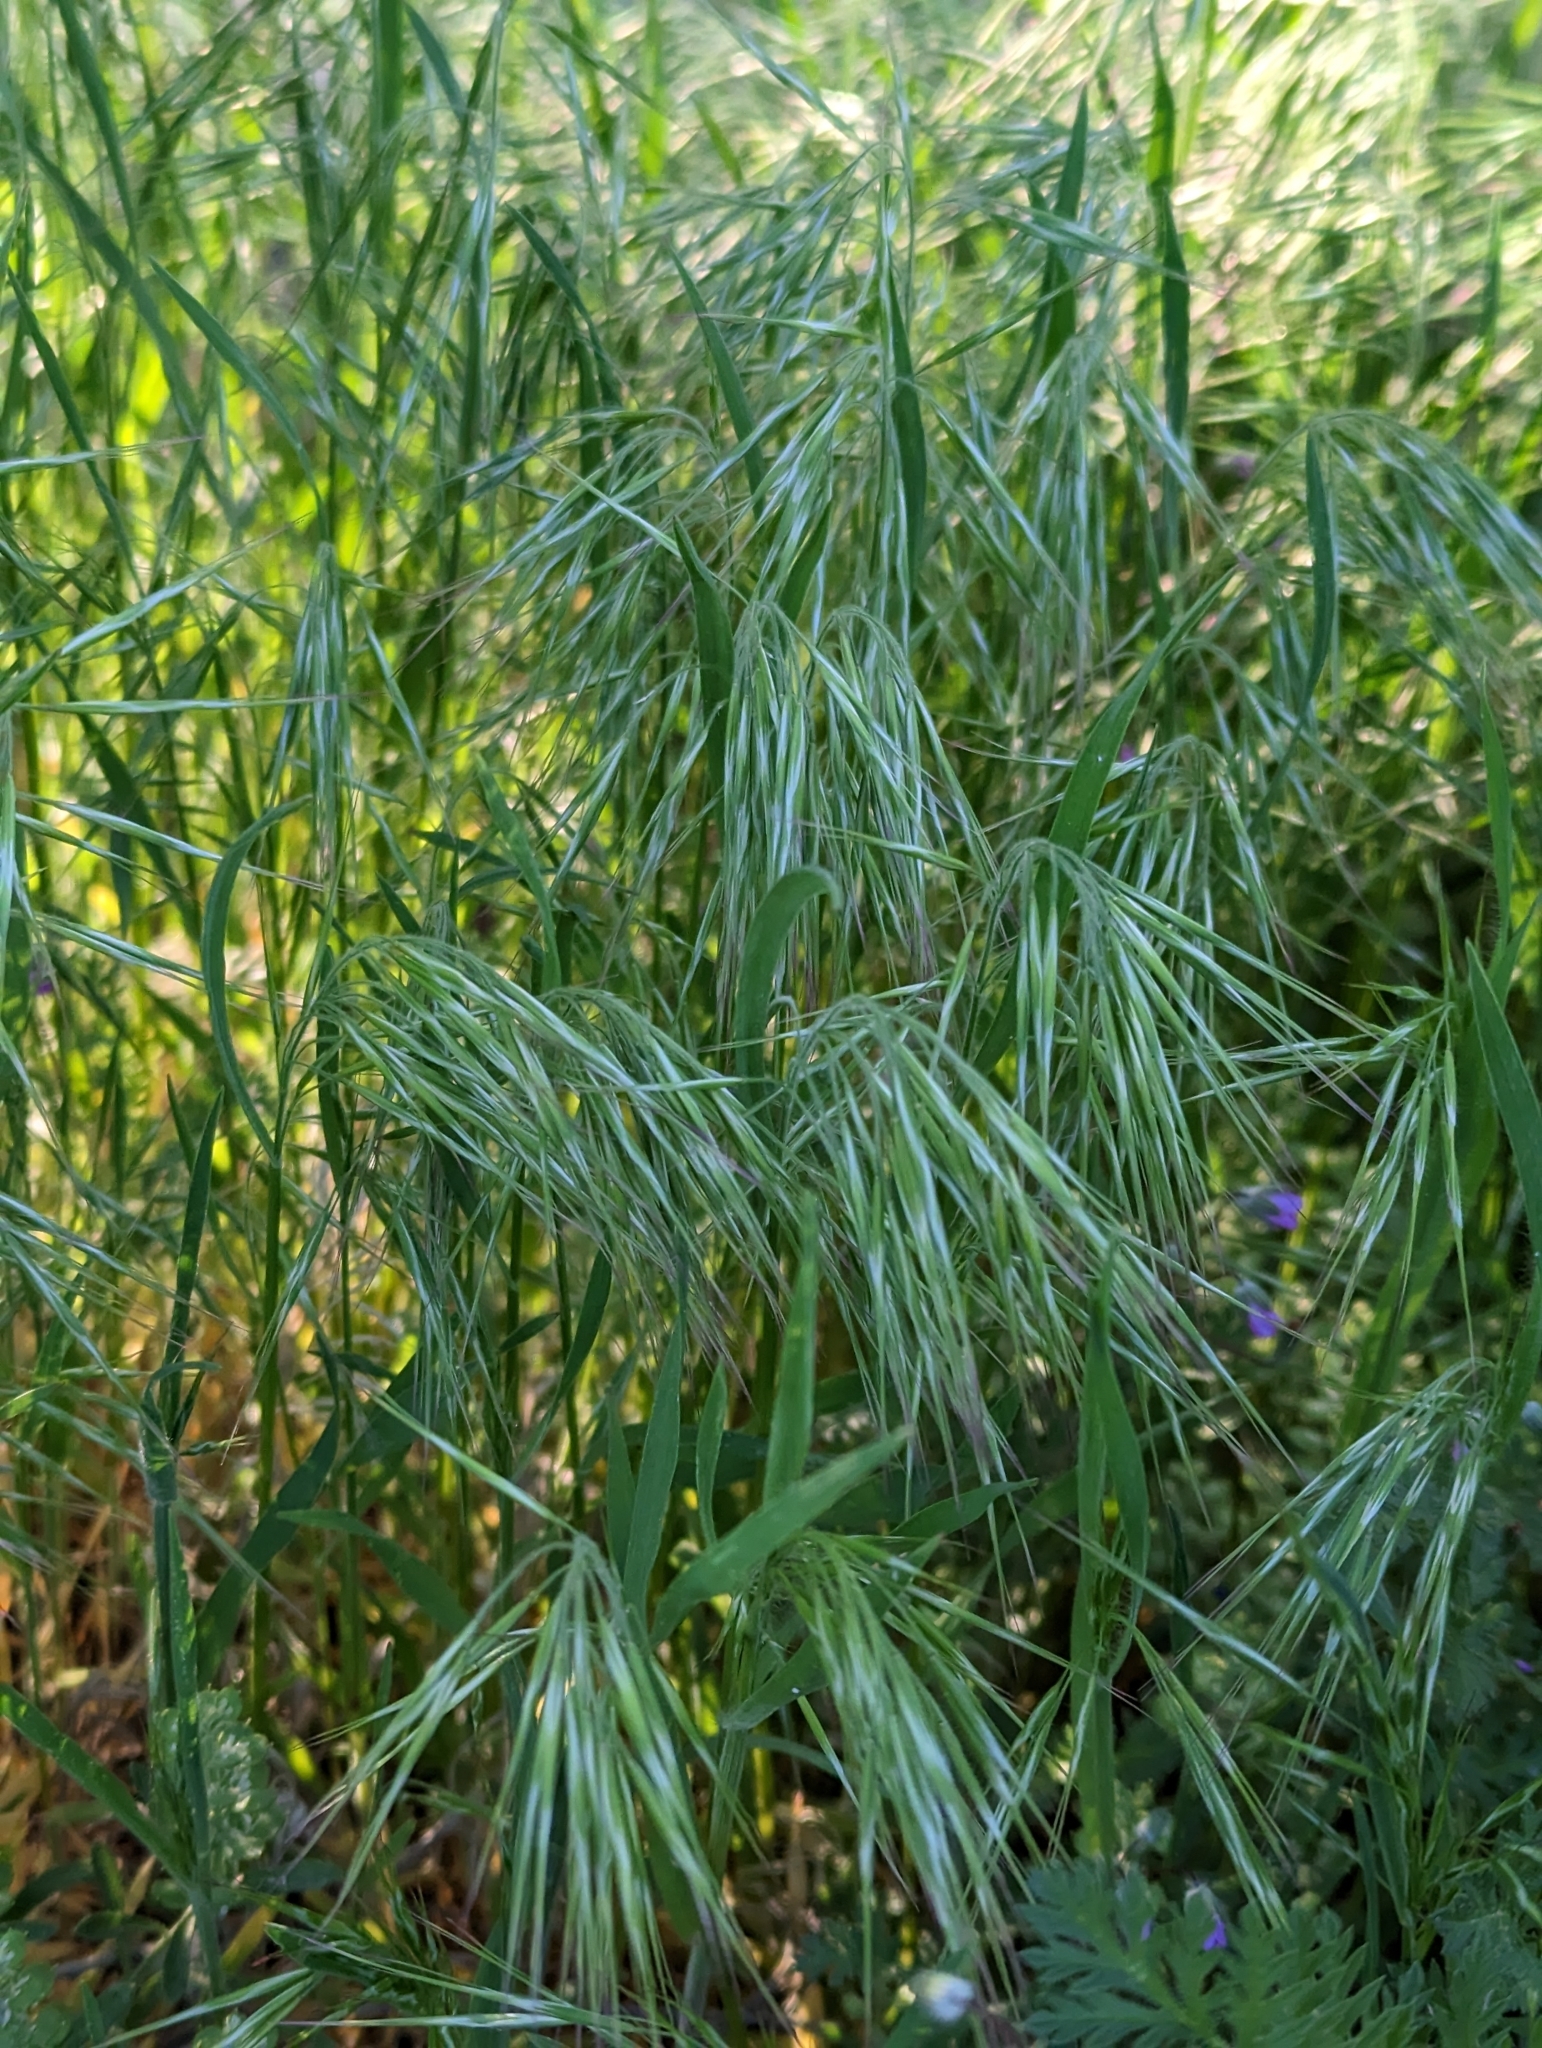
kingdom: Plantae
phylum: Tracheophyta
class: Liliopsida
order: Poales
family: Poaceae
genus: Bromus
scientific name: Bromus tectorum
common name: Cheatgrass
